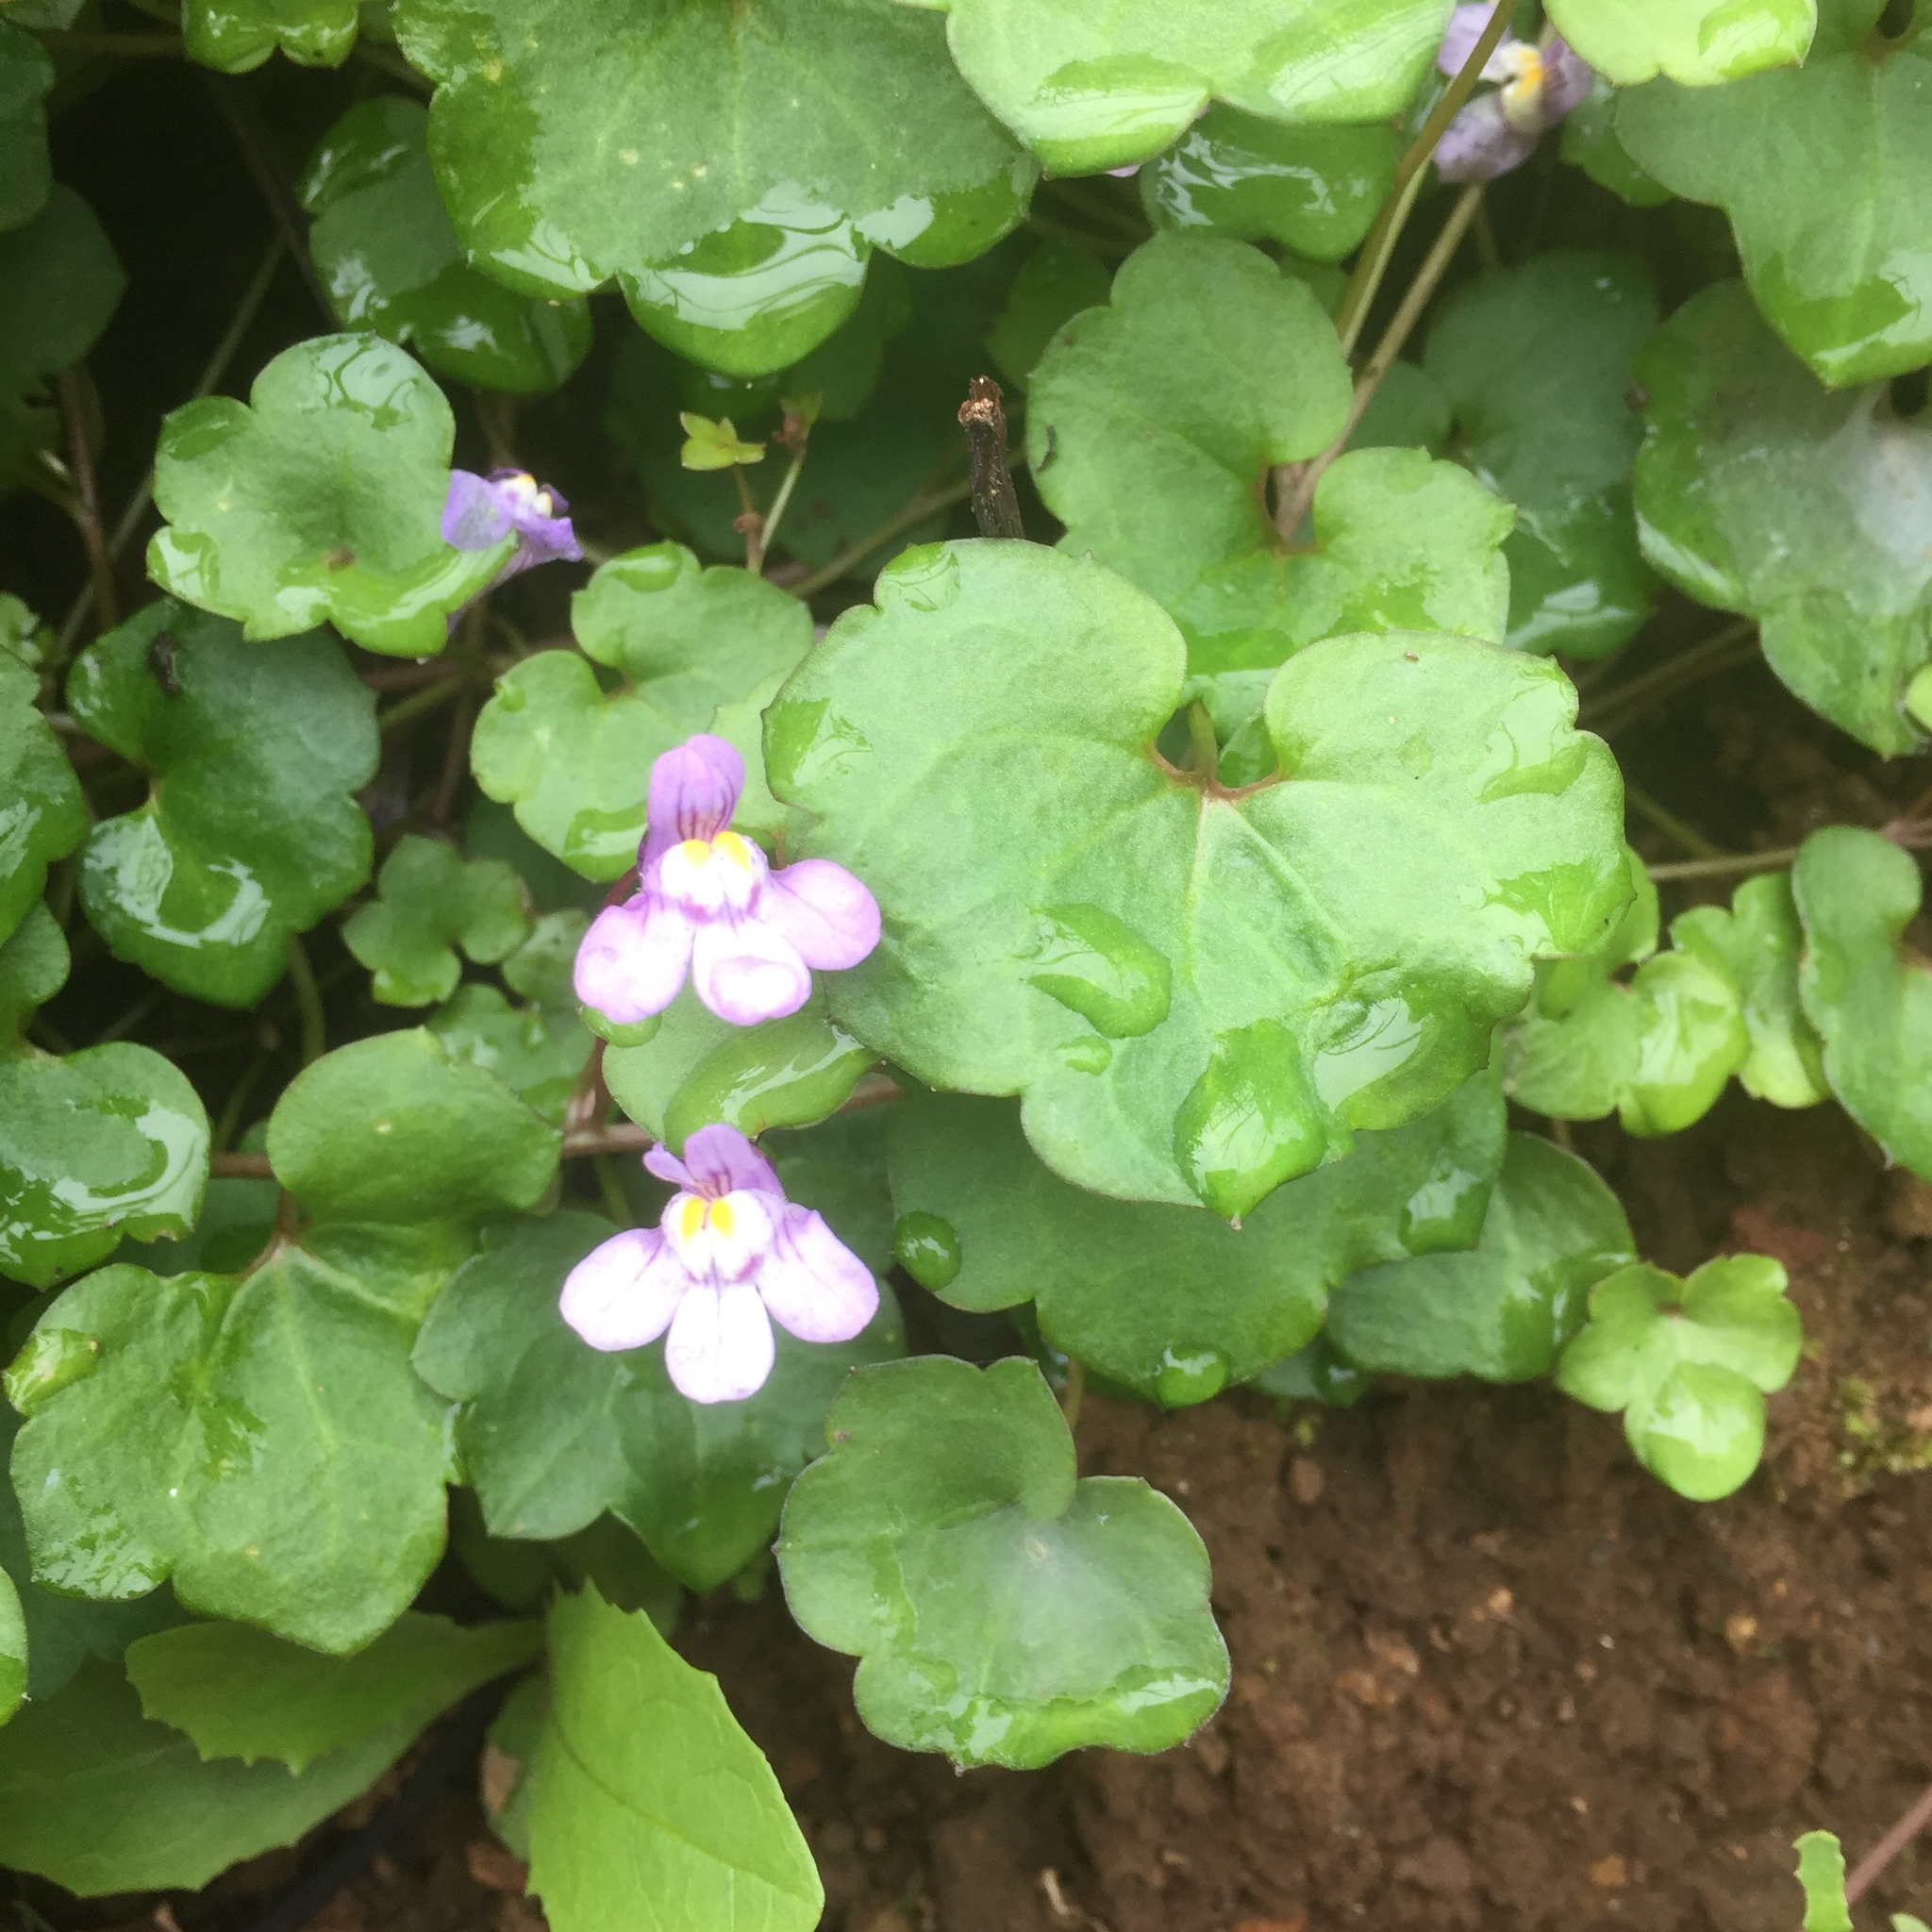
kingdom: Plantae
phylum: Tracheophyta
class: Magnoliopsida
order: Lamiales
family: Plantaginaceae
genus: Cymbalaria
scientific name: Cymbalaria muralis
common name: Ivy-leaved toadflax
